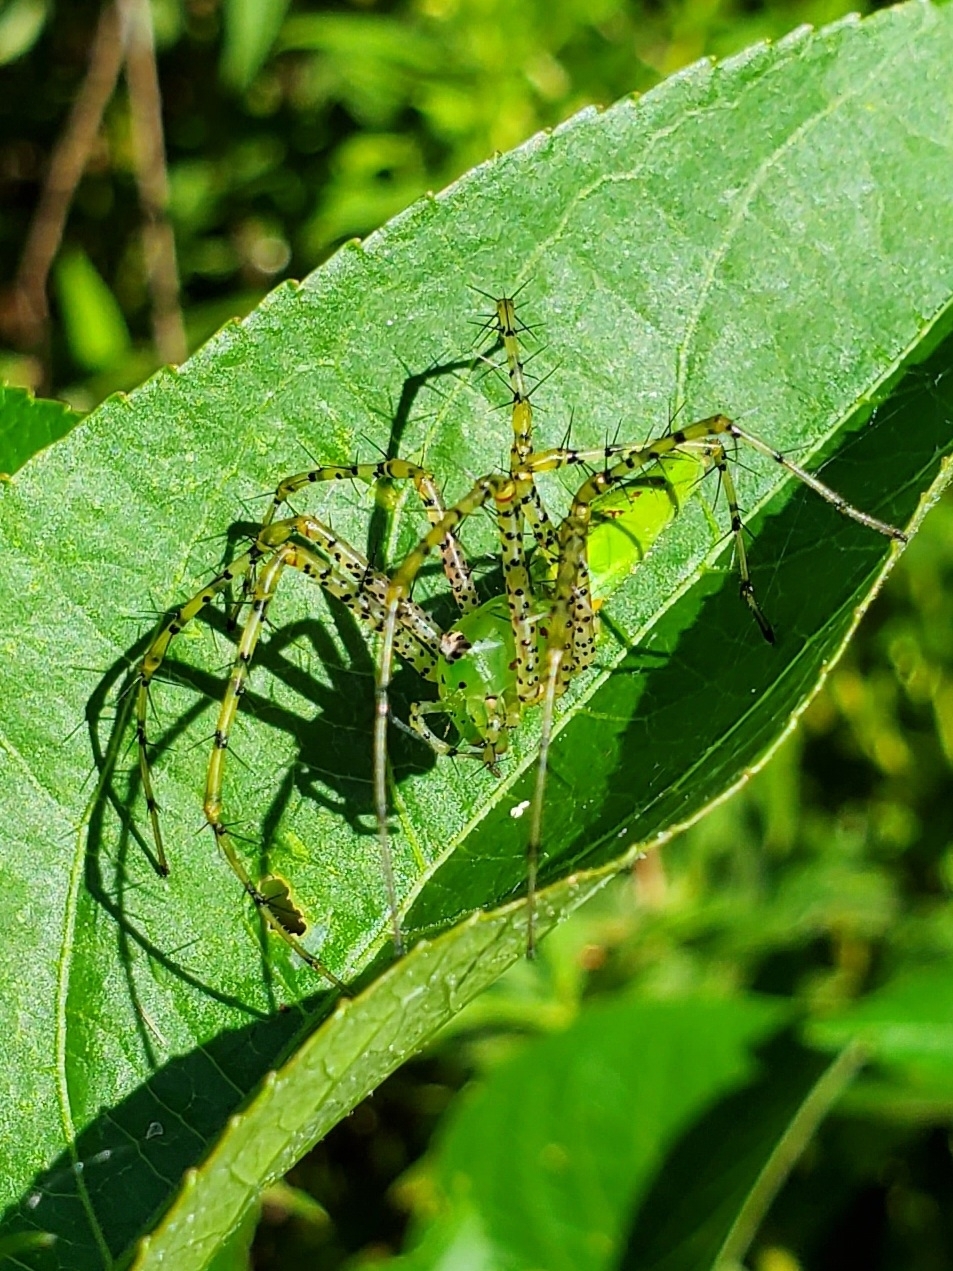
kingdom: Animalia
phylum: Arthropoda
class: Arachnida
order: Araneae
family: Oxyopidae
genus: Peucetia
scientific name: Peucetia viridans
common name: Lynx spiders
